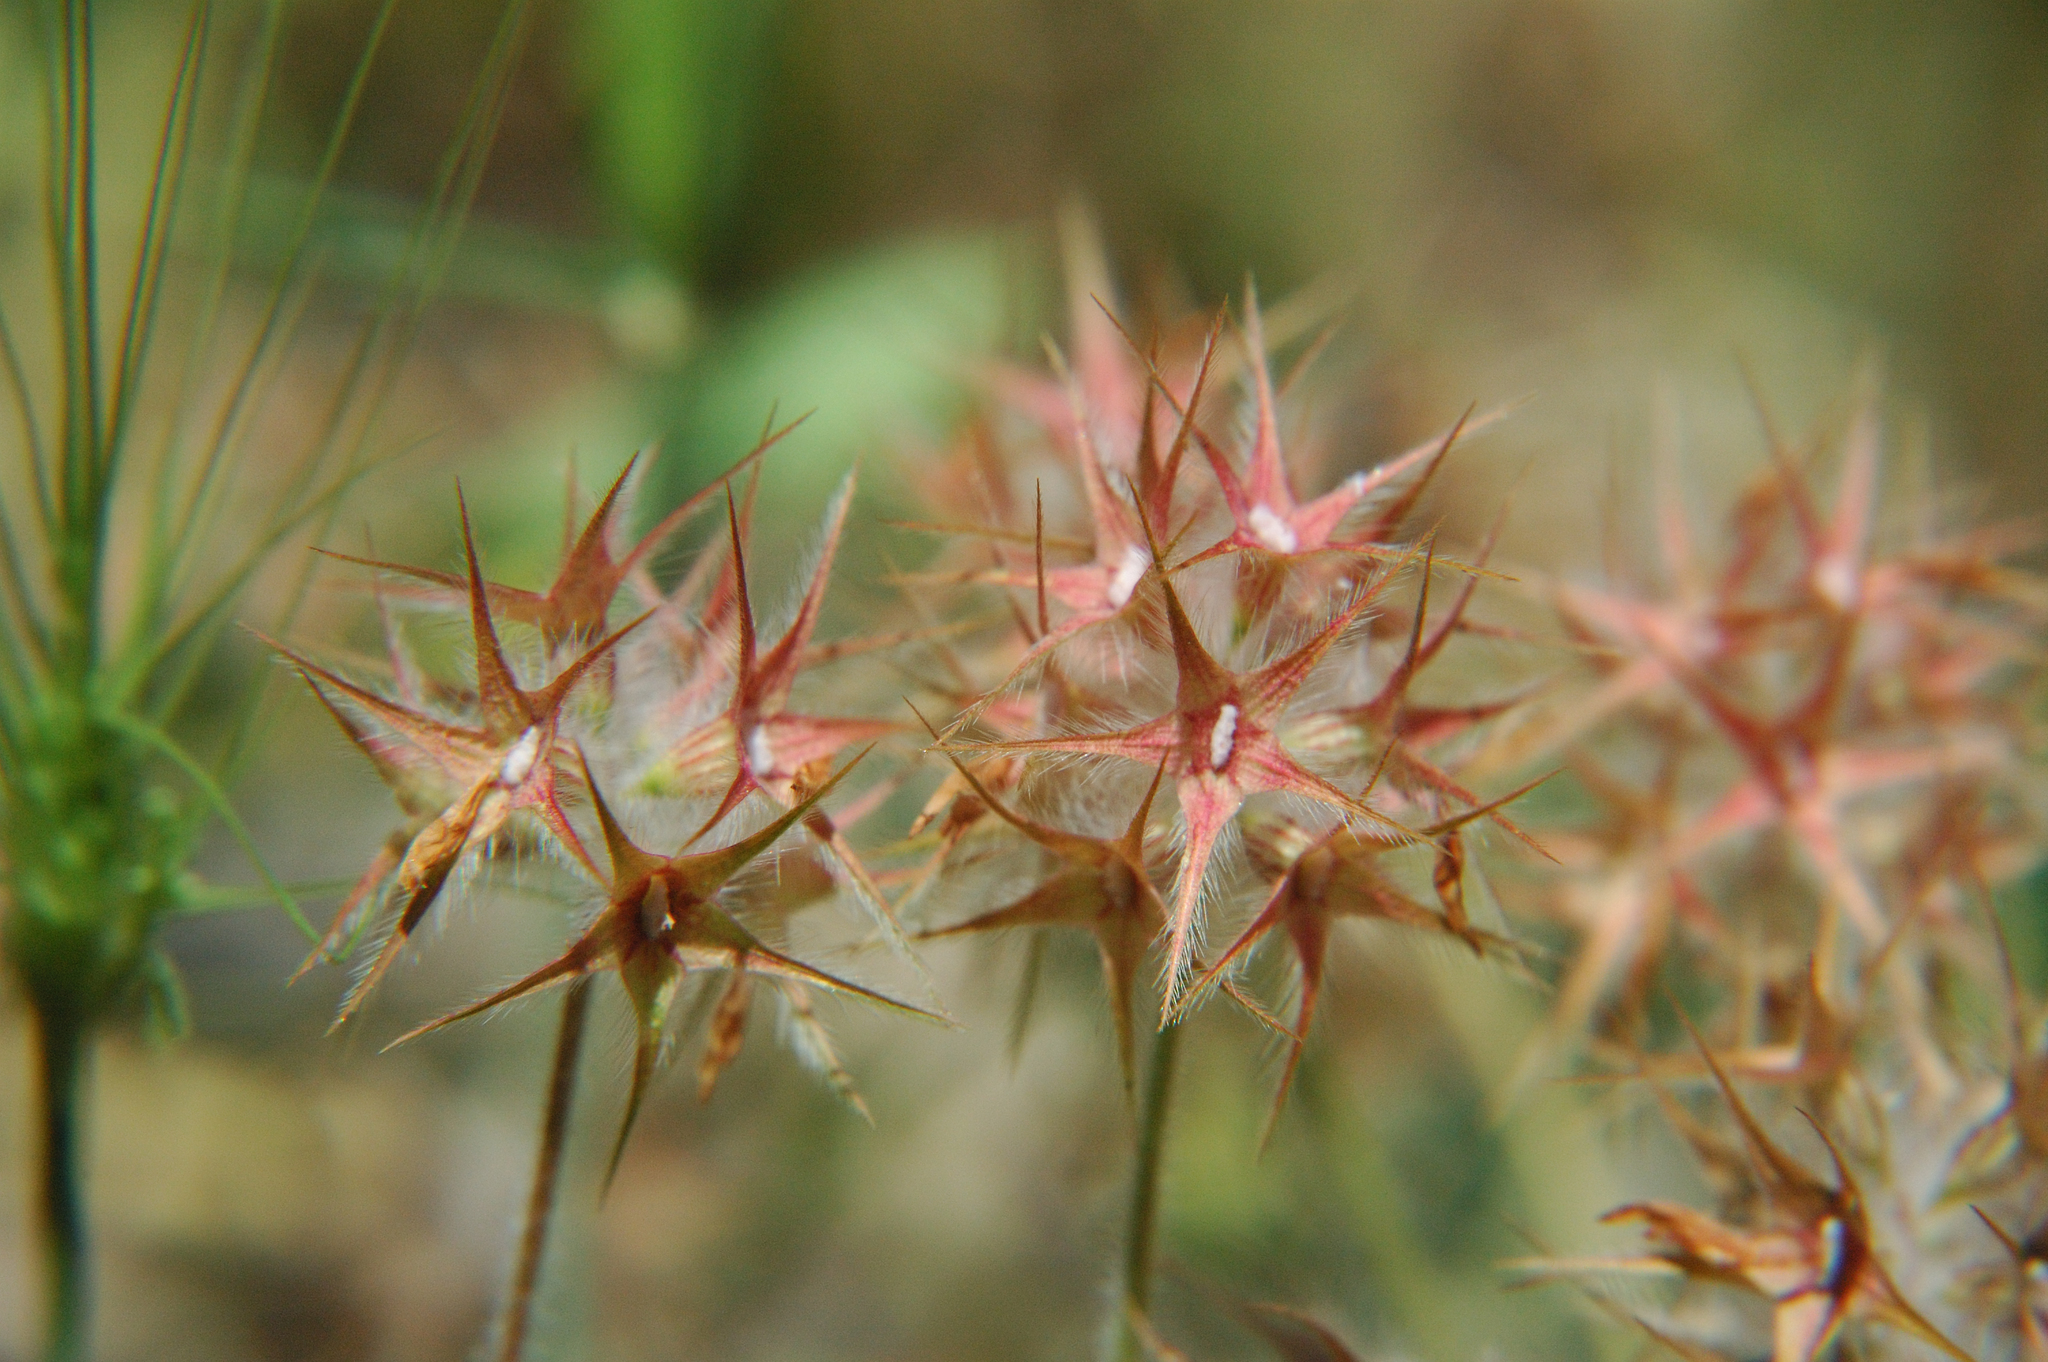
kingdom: Plantae
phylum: Tracheophyta
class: Magnoliopsida
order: Fabales
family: Fabaceae
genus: Trifolium
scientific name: Trifolium stellatum
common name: Starry clover
